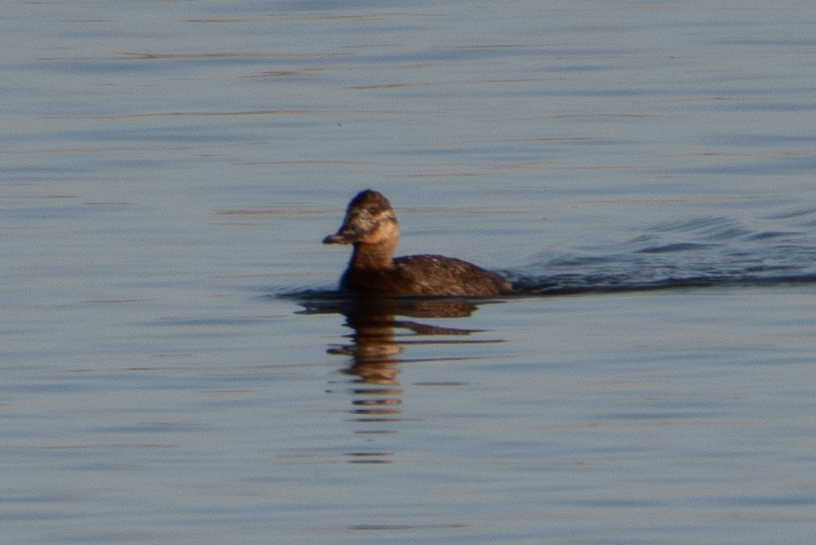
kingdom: Animalia
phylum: Chordata
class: Aves
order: Anseriformes
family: Anatidae
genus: Oxyura
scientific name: Oxyura jamaicensis
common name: Ruddy duck
